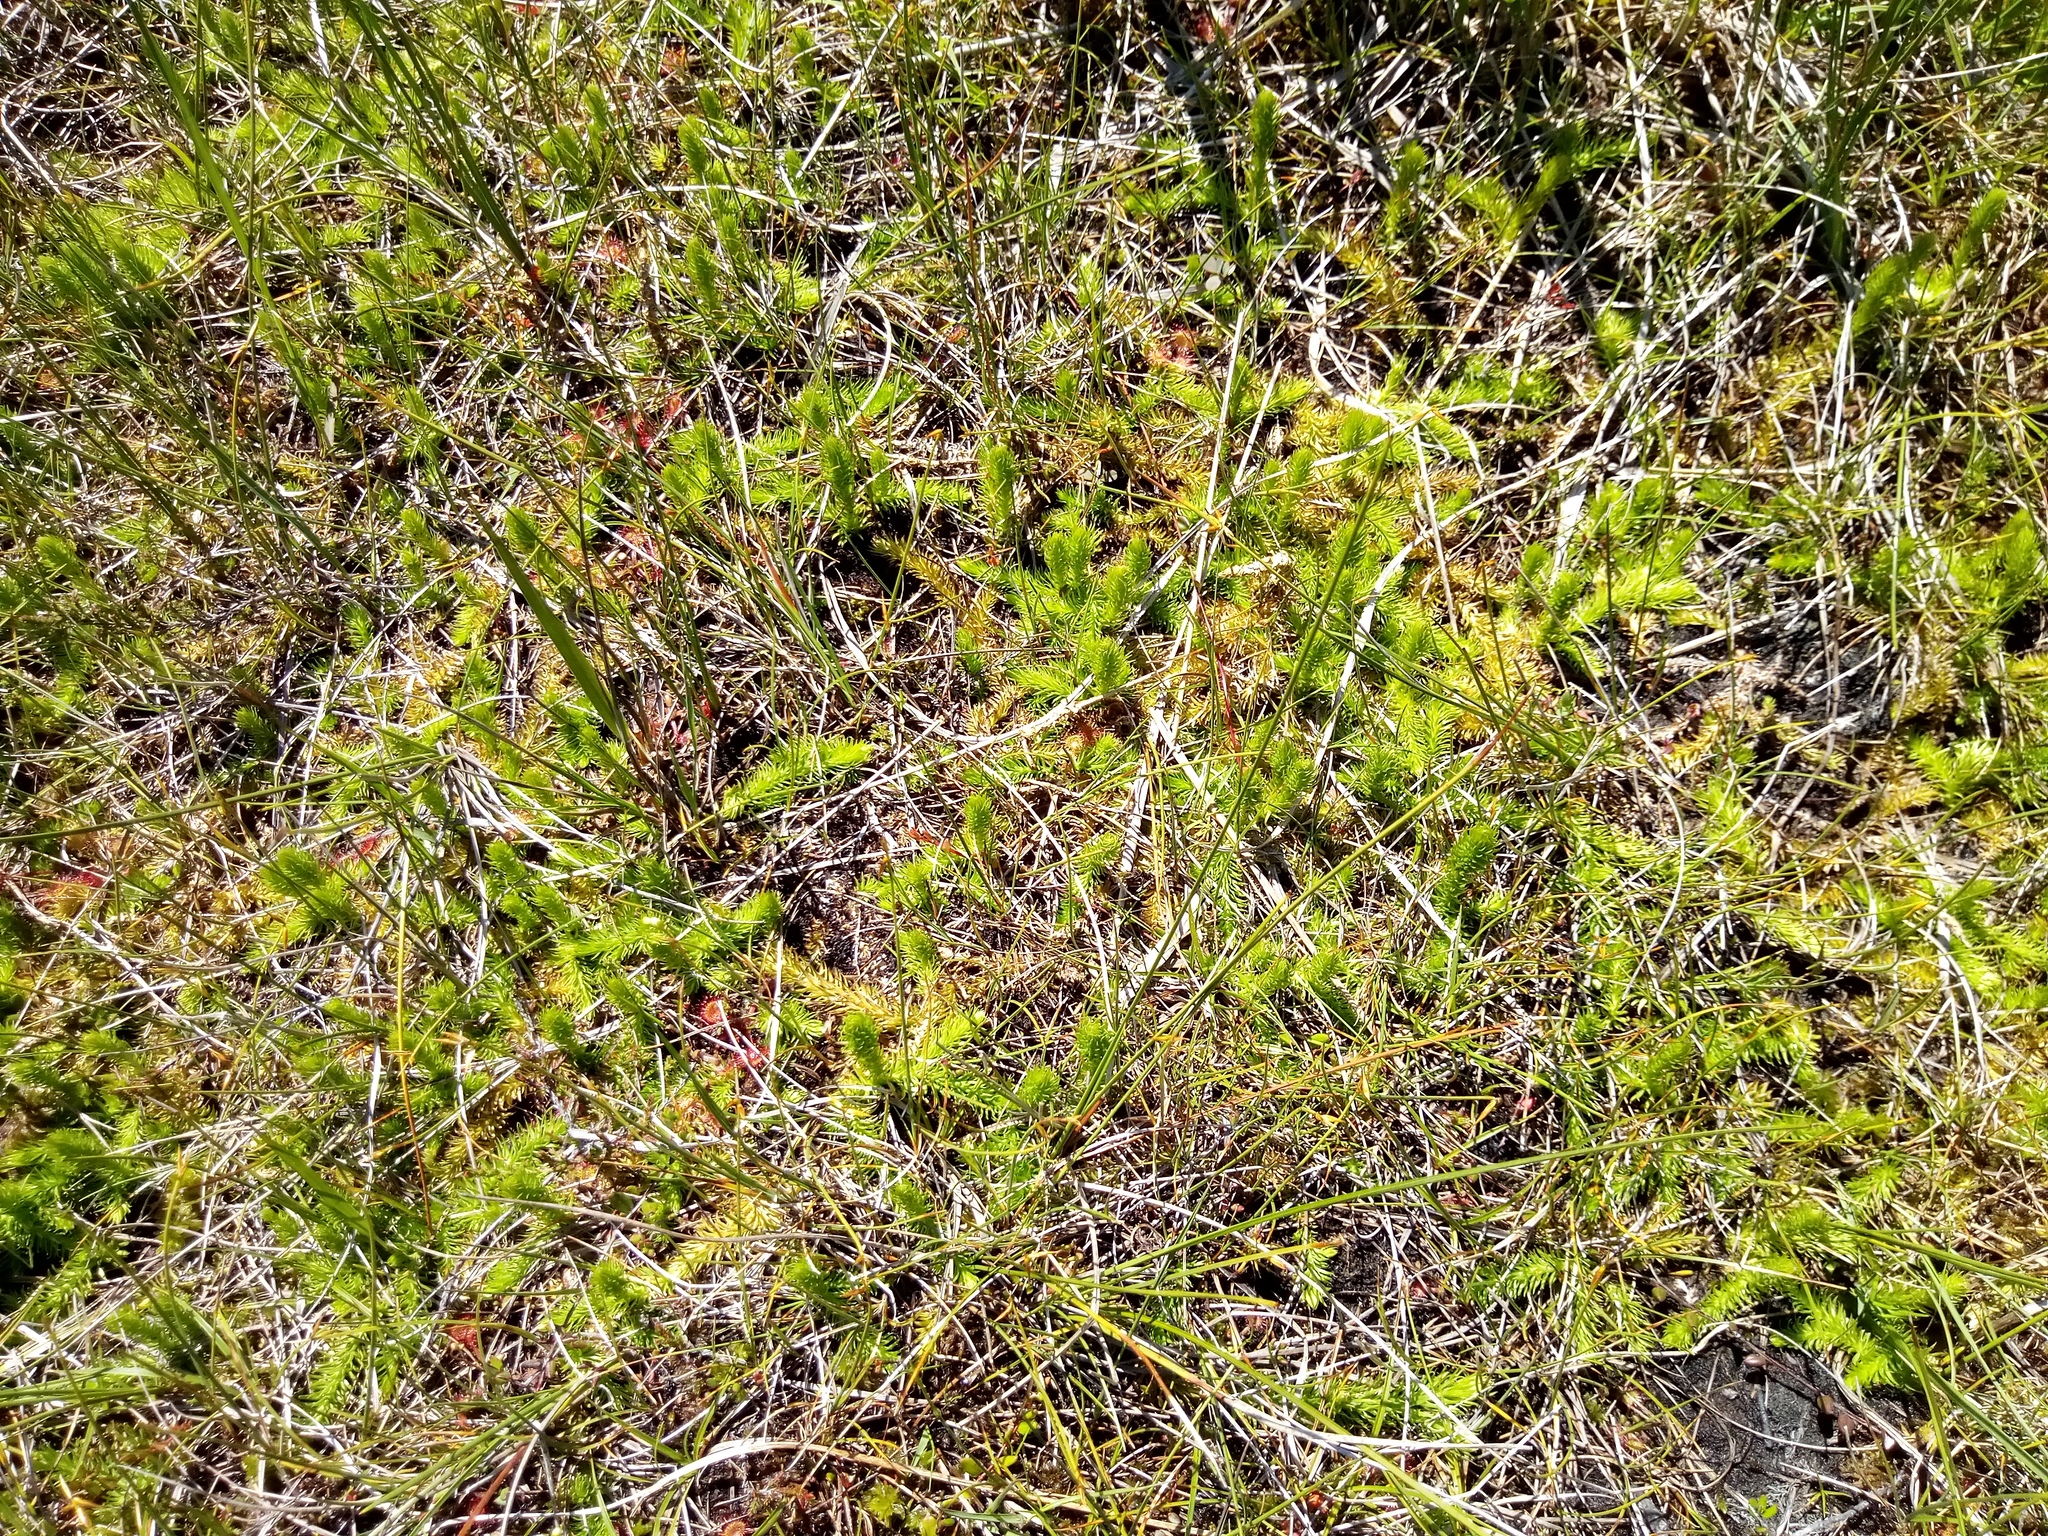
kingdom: Plantae
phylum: Tracheophyta
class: Lycopodiopsida
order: Lycopodiales
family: Lycopodiaceae
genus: Lycopodiella
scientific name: Lycopodiella inundata
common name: Marsh clubmoss
